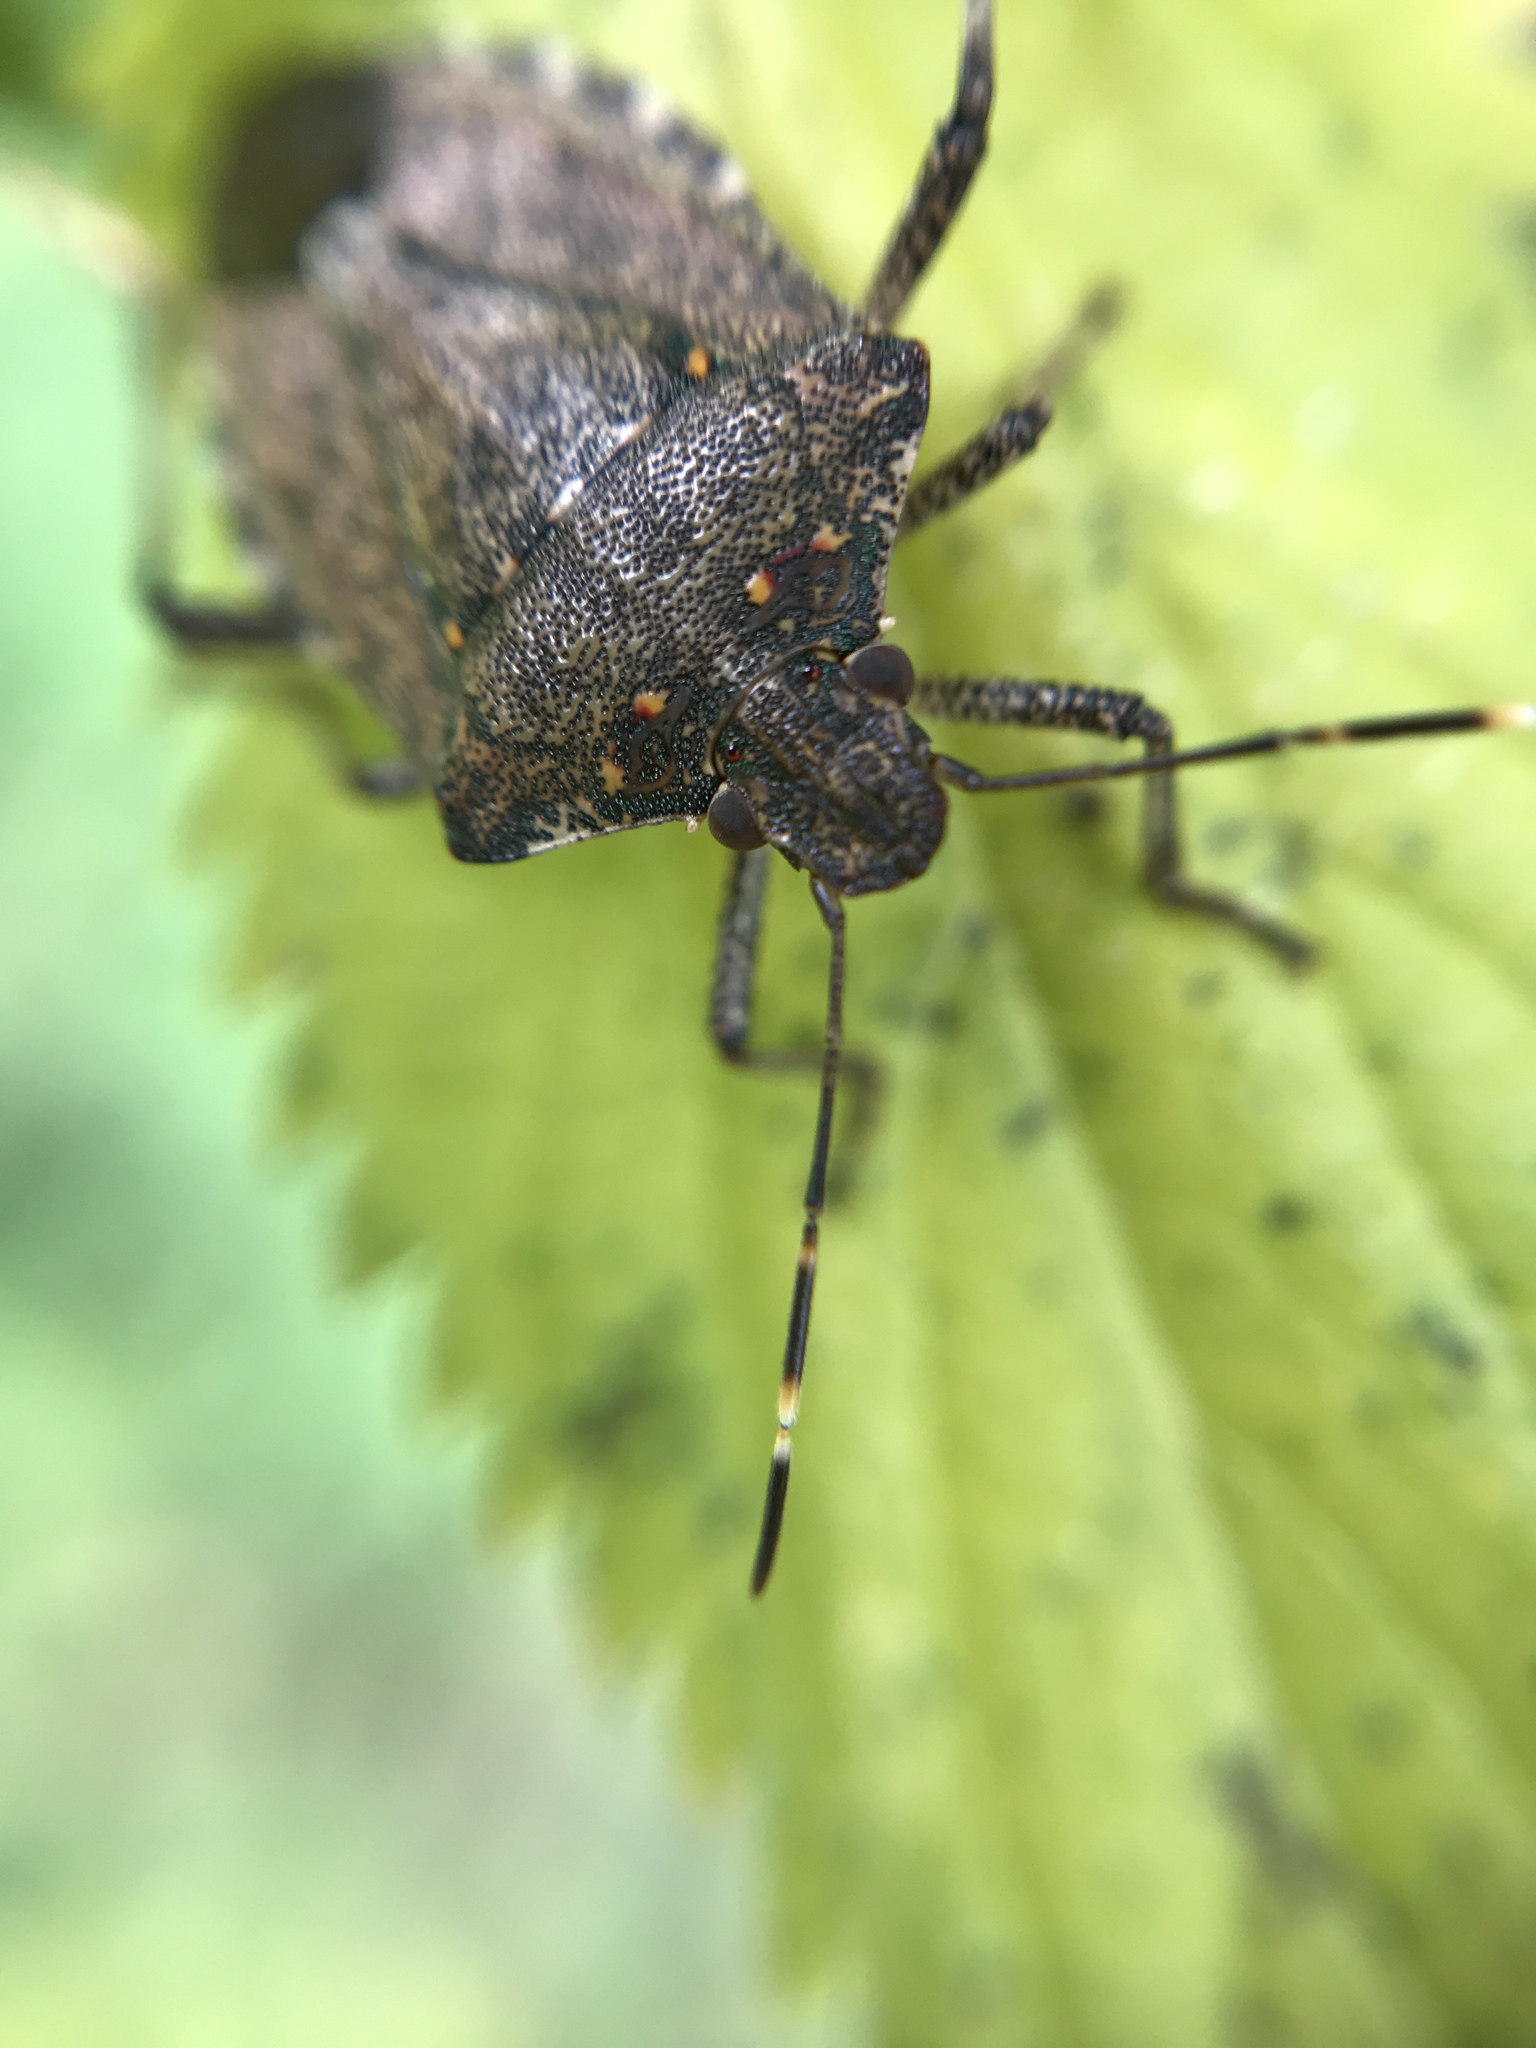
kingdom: Animalia
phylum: Arthropoda
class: Insecta
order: Hemiptera
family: Pentatomidae
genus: Halyomorpha
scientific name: Halyomorpha halys
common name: Brown marmorated stink bug
